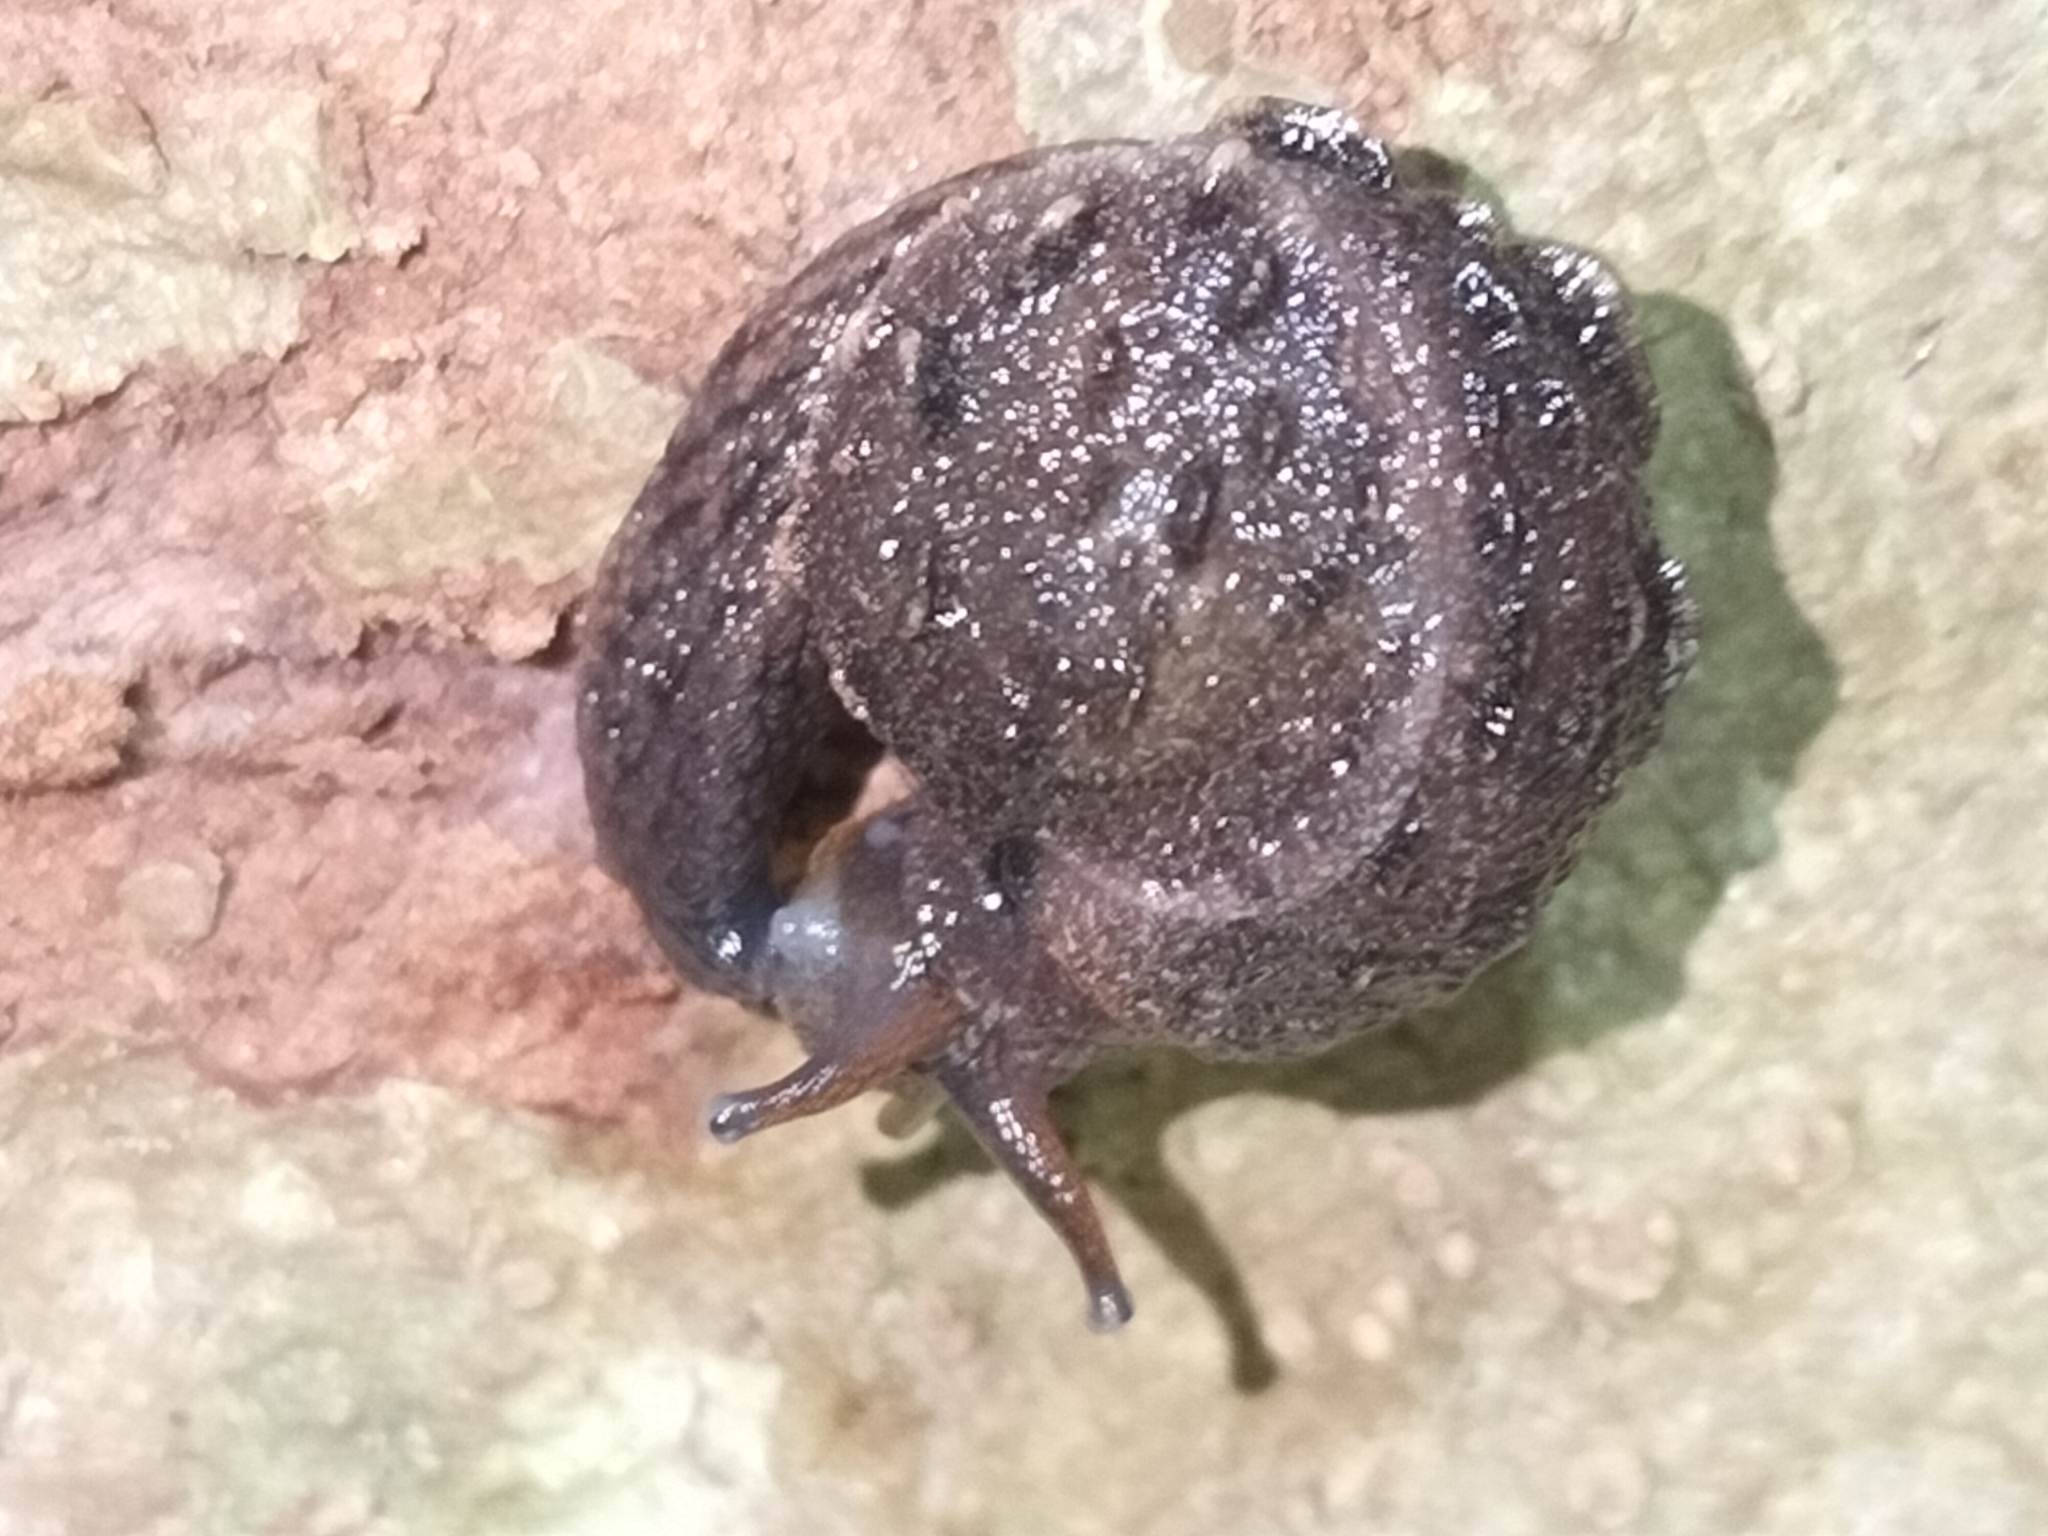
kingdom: Animalia
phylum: Mollusca
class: Gastropoda
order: Stylommatophora
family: Helicarionidae
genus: Fastosarion
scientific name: Fastosarion brazieri
